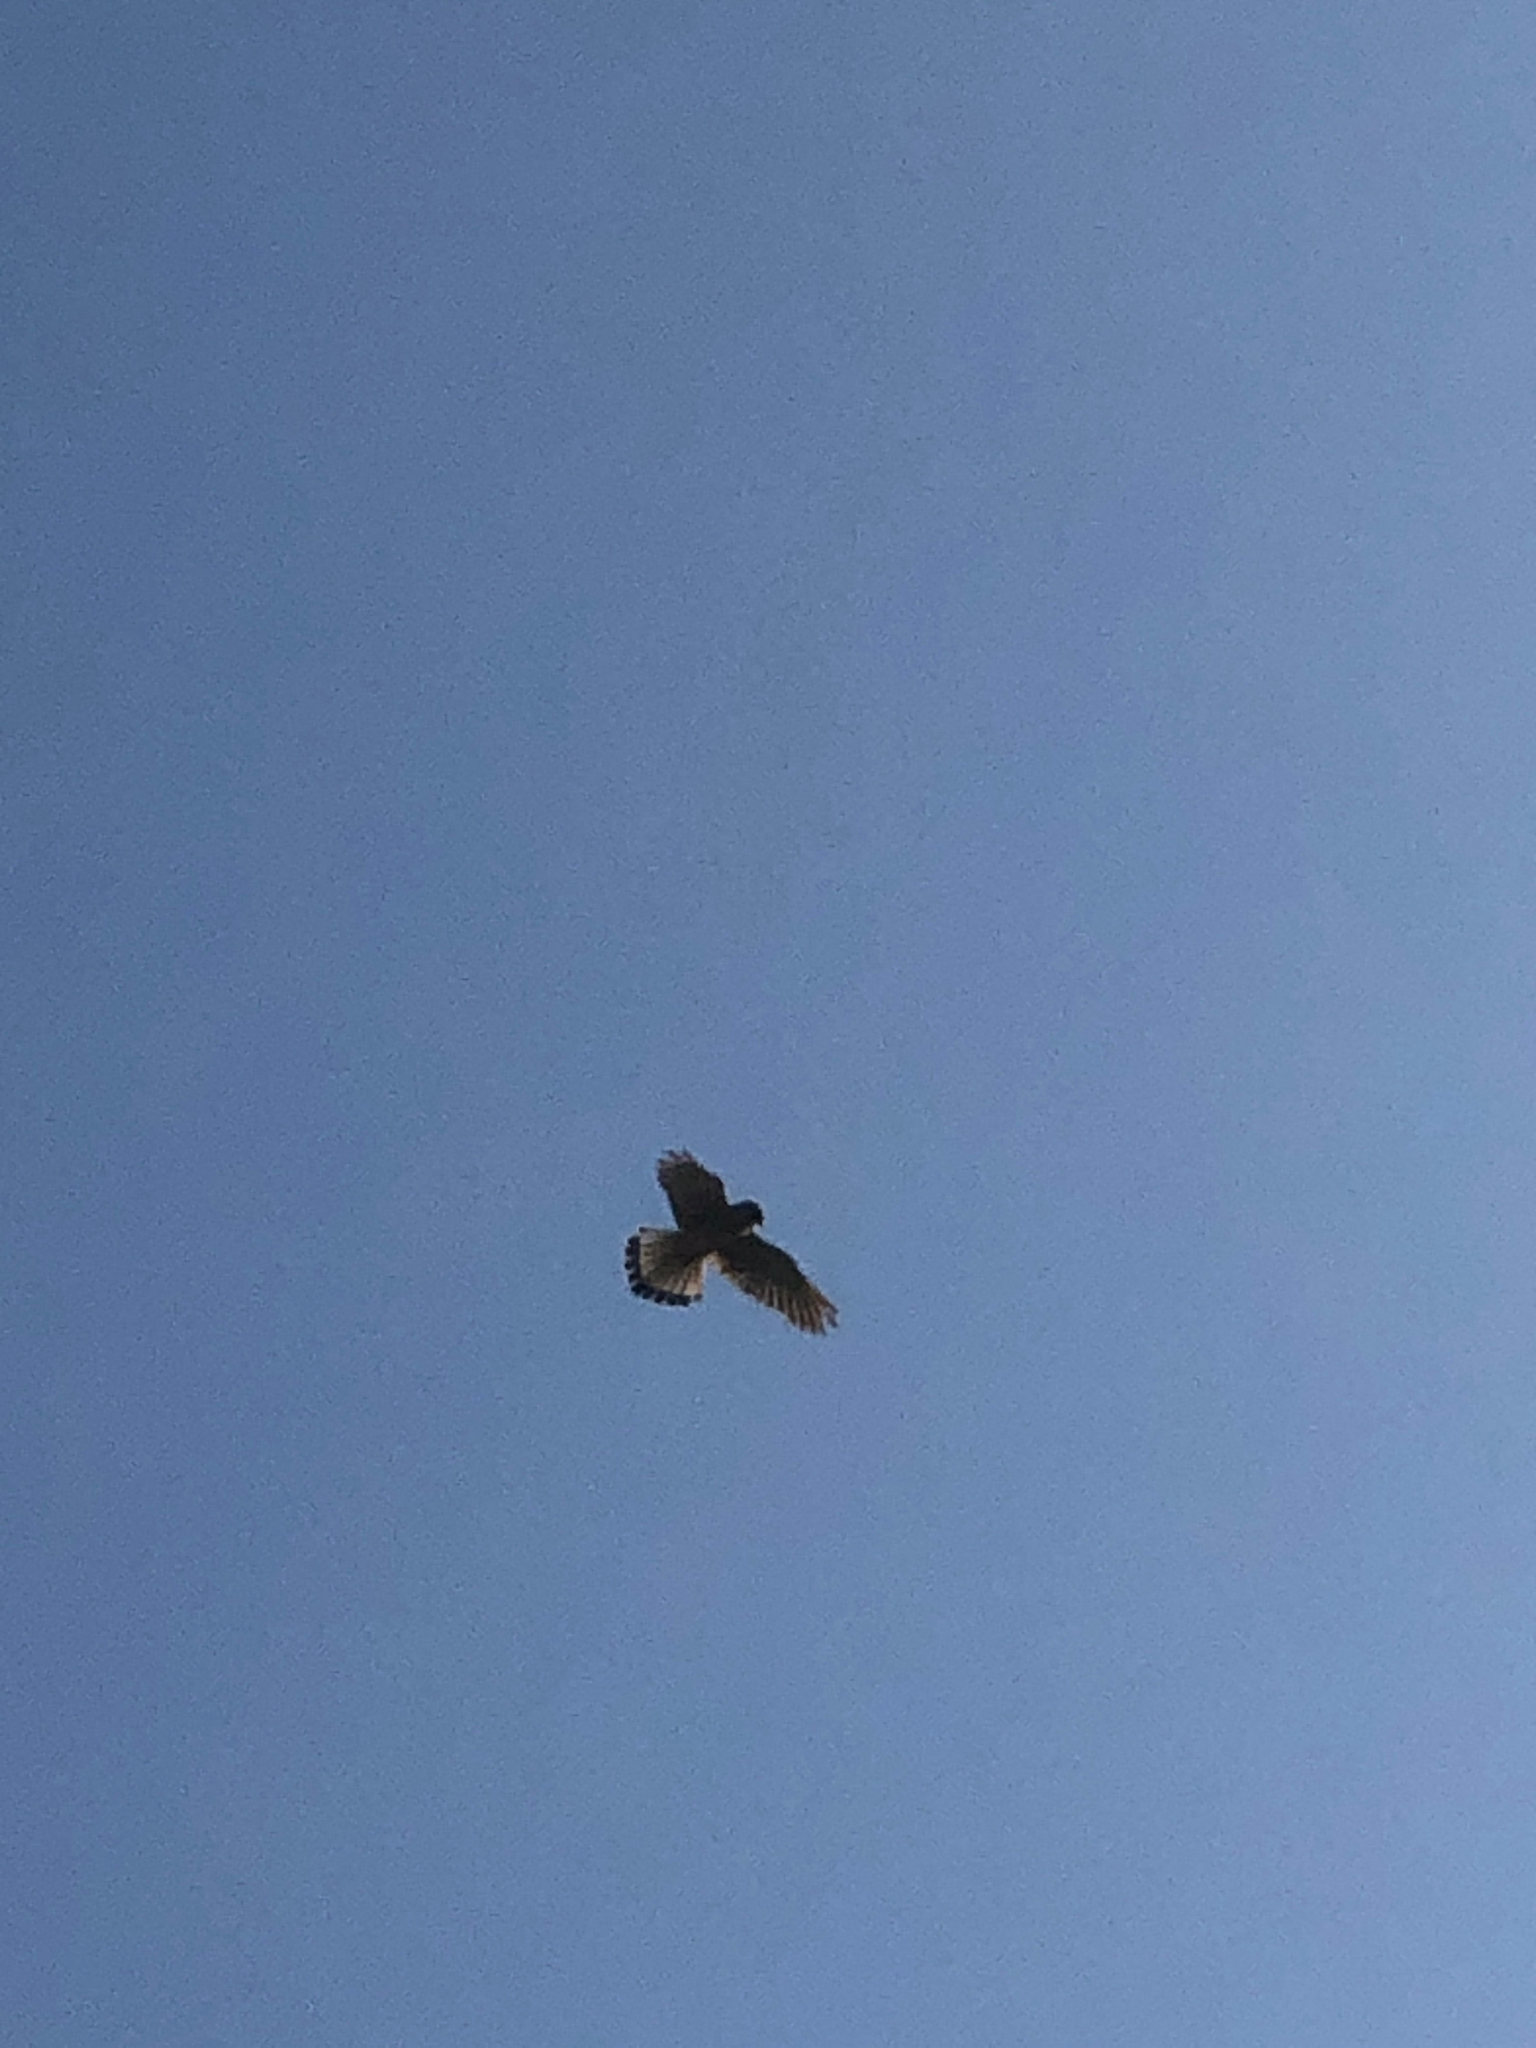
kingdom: Animalia
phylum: Chordata
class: Aves
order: Falconiformes
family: Falconidae
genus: Falco
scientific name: Falco tinnunculus
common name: Common kestrel
